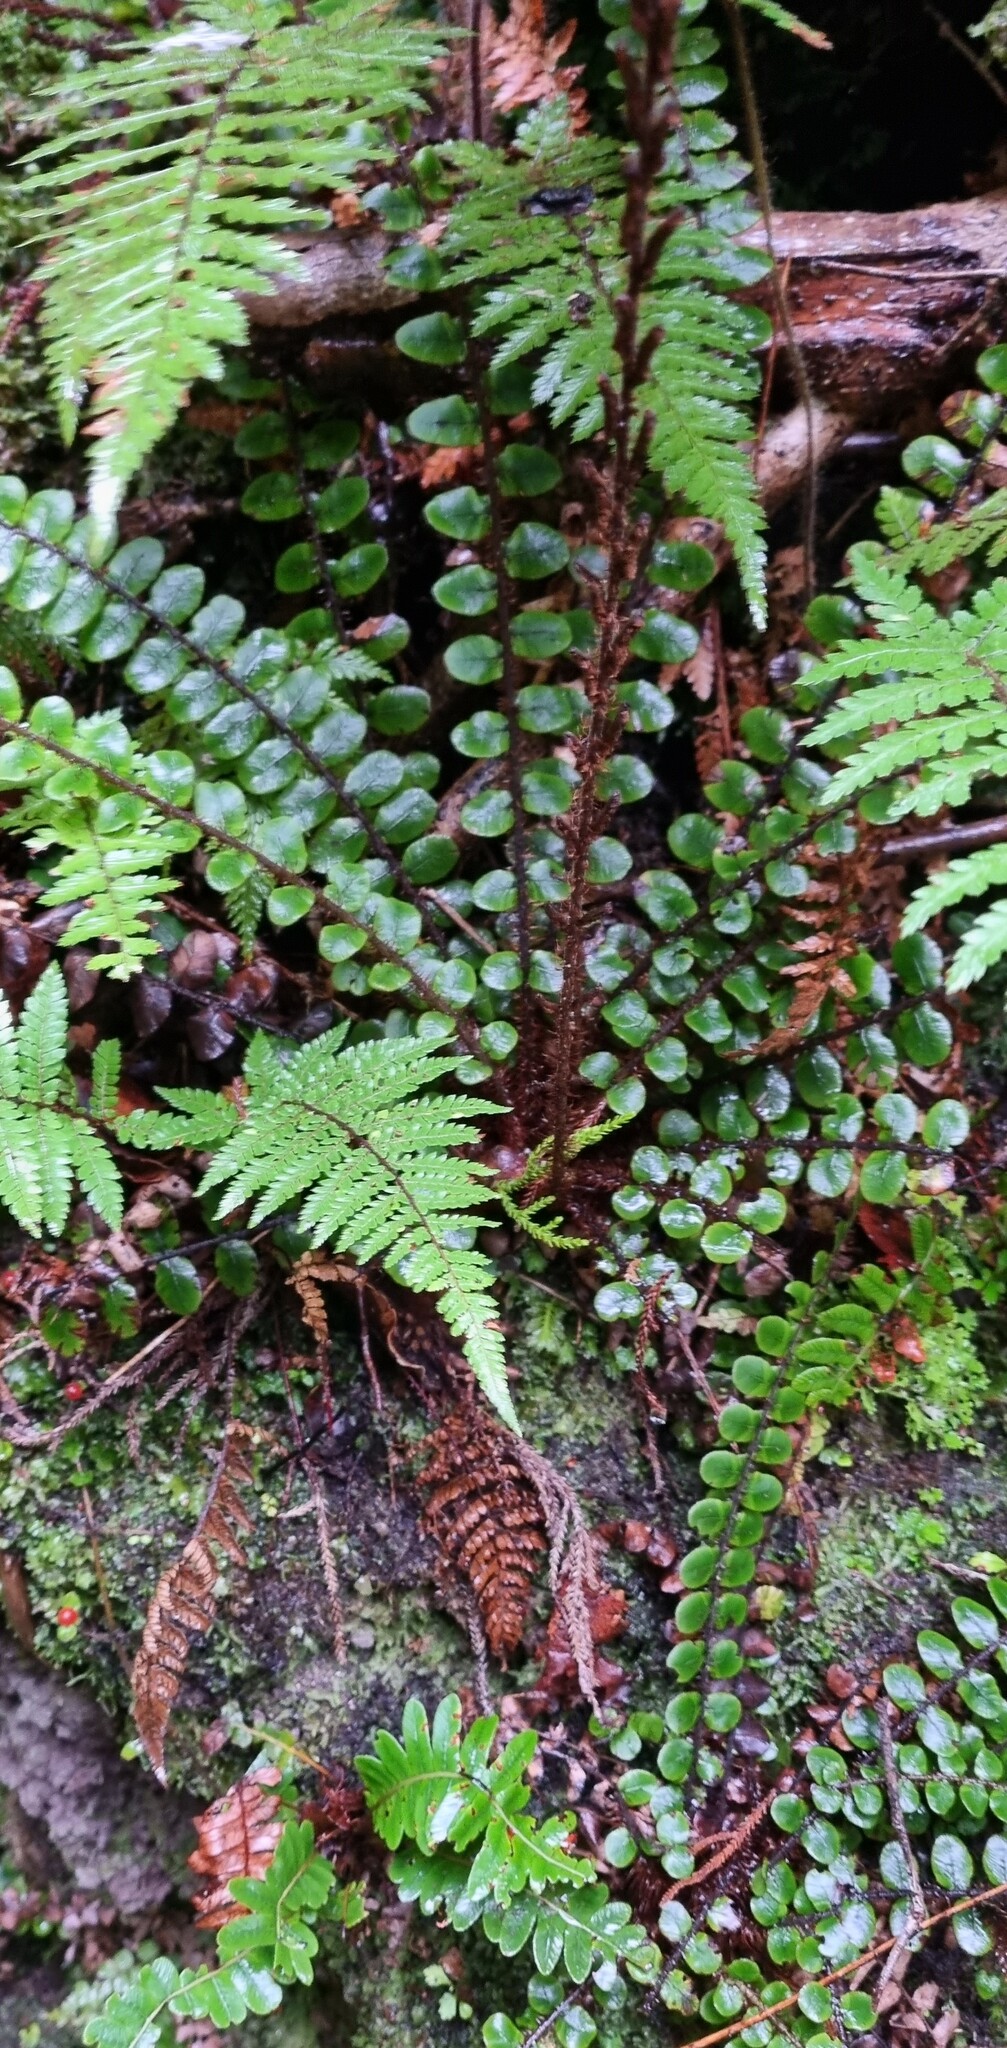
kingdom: Plantae
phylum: Tracheophyta
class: Polypodiopsida
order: Polypodiales
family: Blechnaceae
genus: Cranfillia
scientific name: Cranfillia fluviatilis
